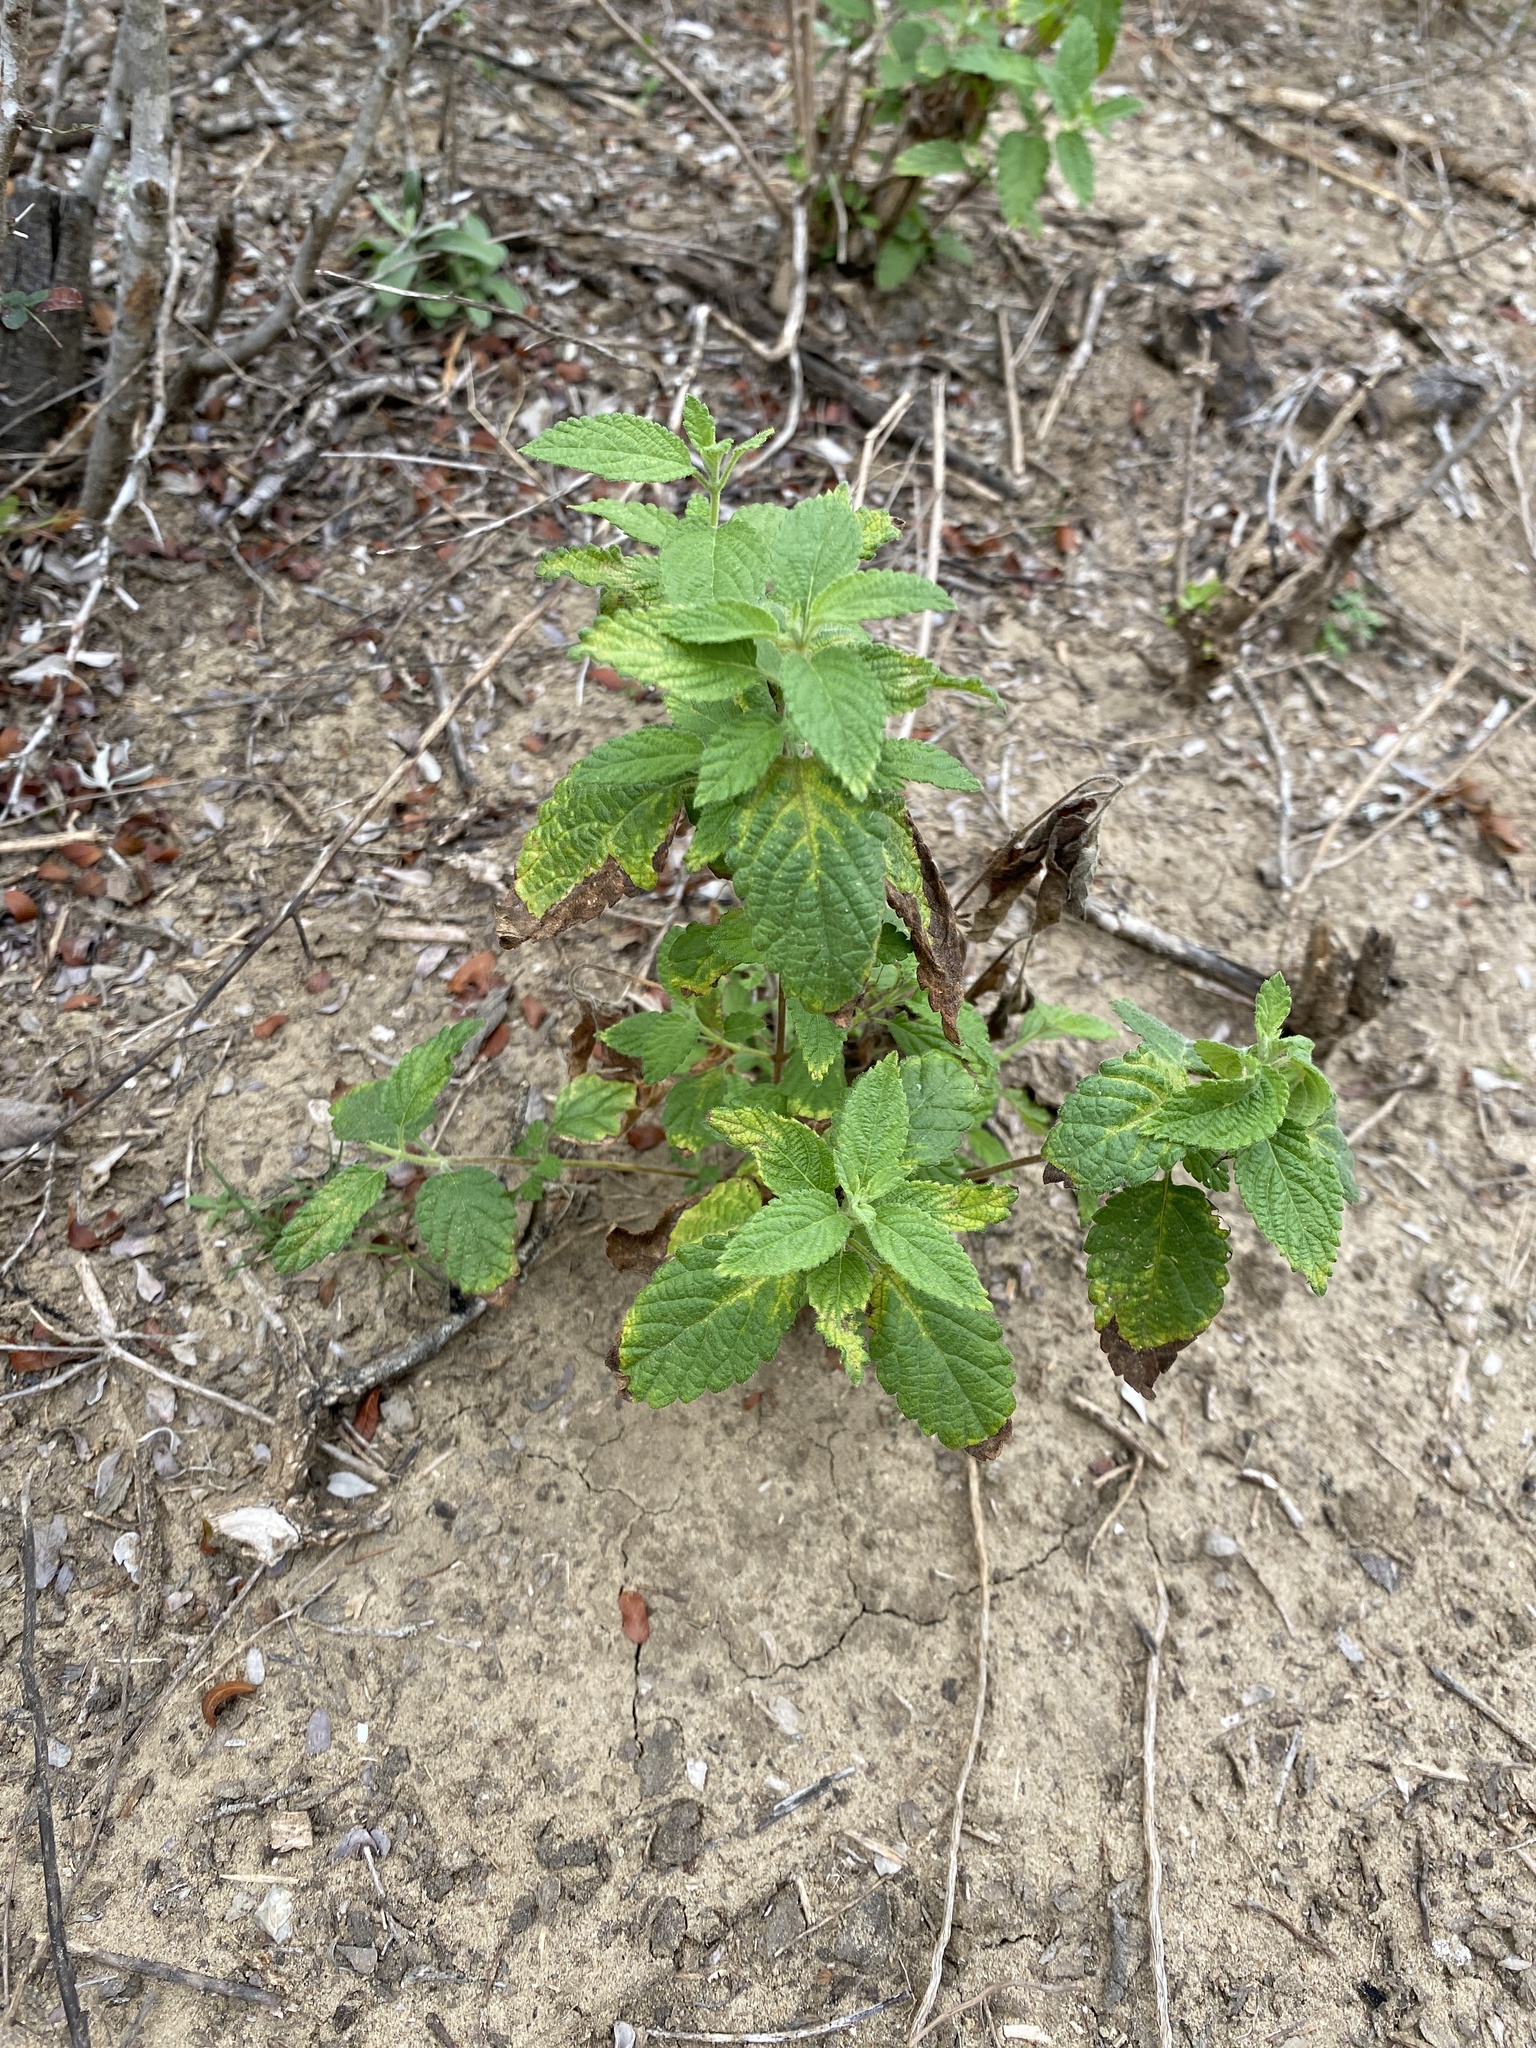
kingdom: Plantae
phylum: Tracheophyta
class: Magnoliopsida
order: Lamiales
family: Verbenaceae
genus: Lippia
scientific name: Lippia origanoides
